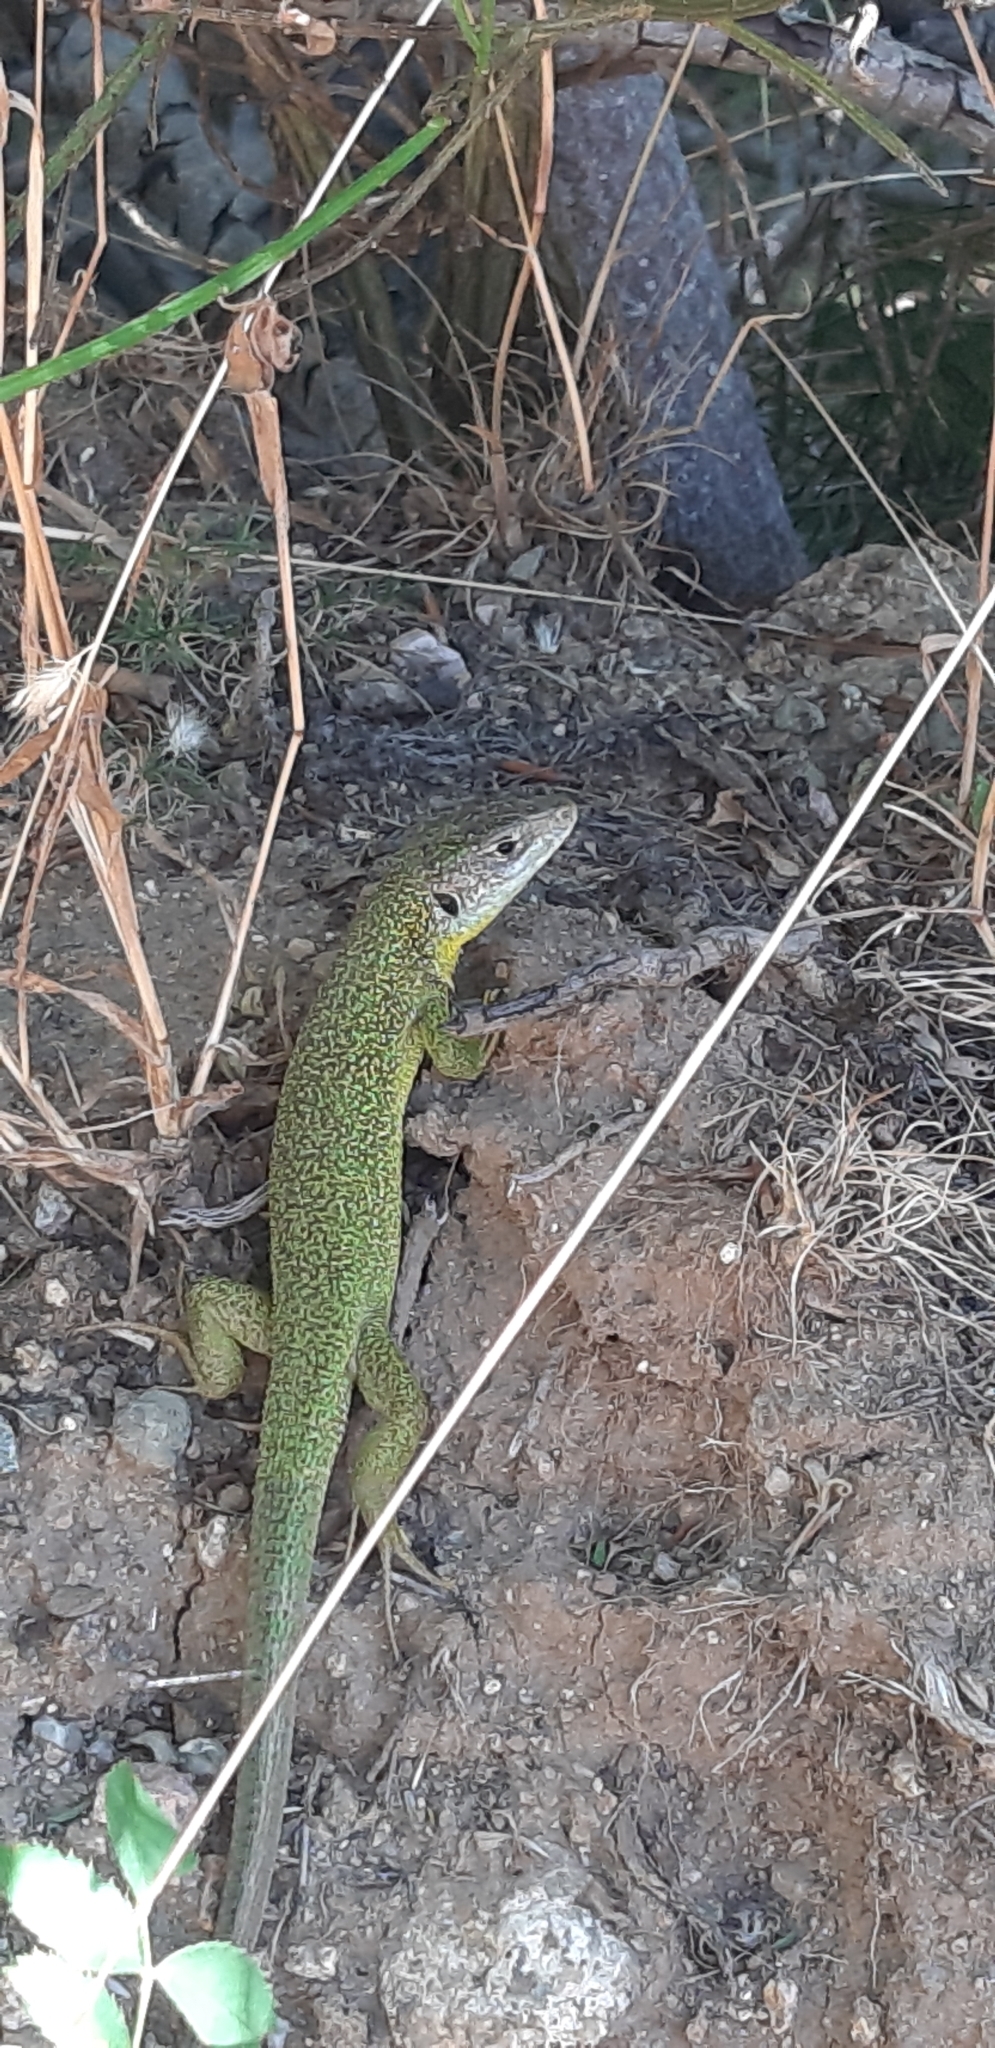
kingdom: Animalia
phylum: Chordata
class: Squamata
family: Lacertidae
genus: Lacerta
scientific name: Lacerta bilineata
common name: Western green lizard
